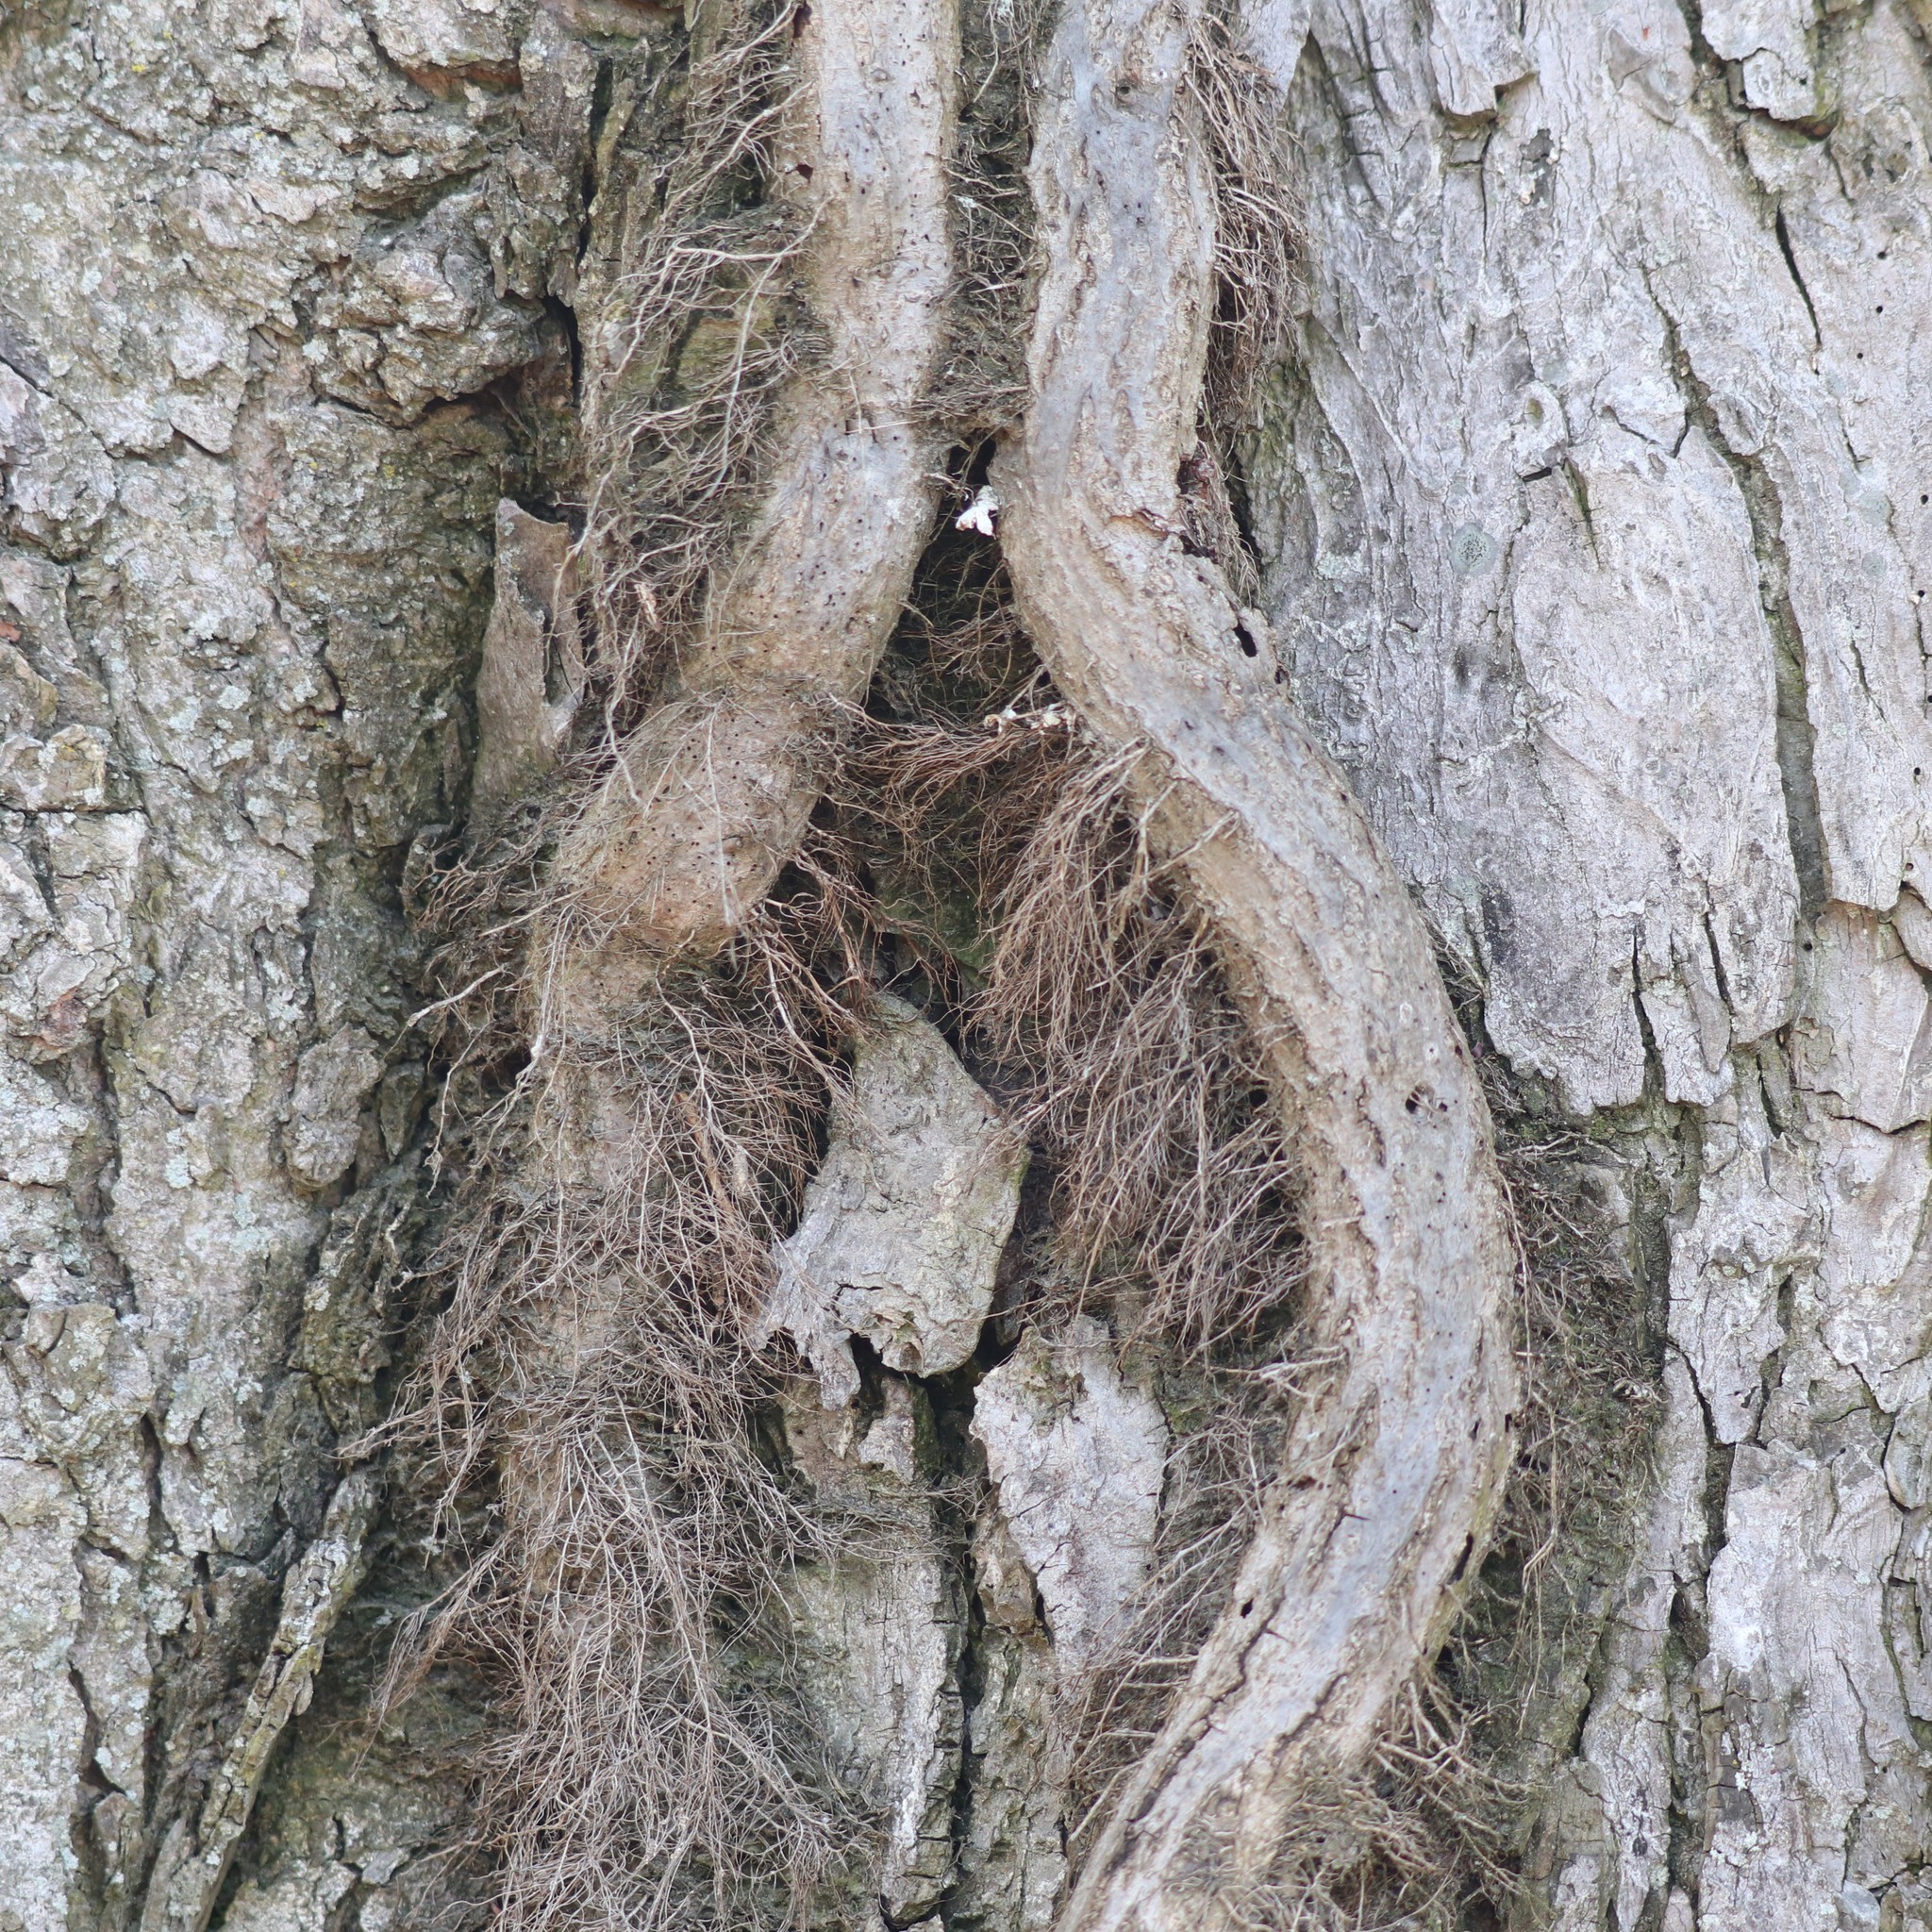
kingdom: Plantae
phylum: Tracheophyta
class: Magnoliopsida
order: Sapindales
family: Anacardiaceae
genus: Toxicodendron
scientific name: Toxicodendron radicans
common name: Poison ivy
